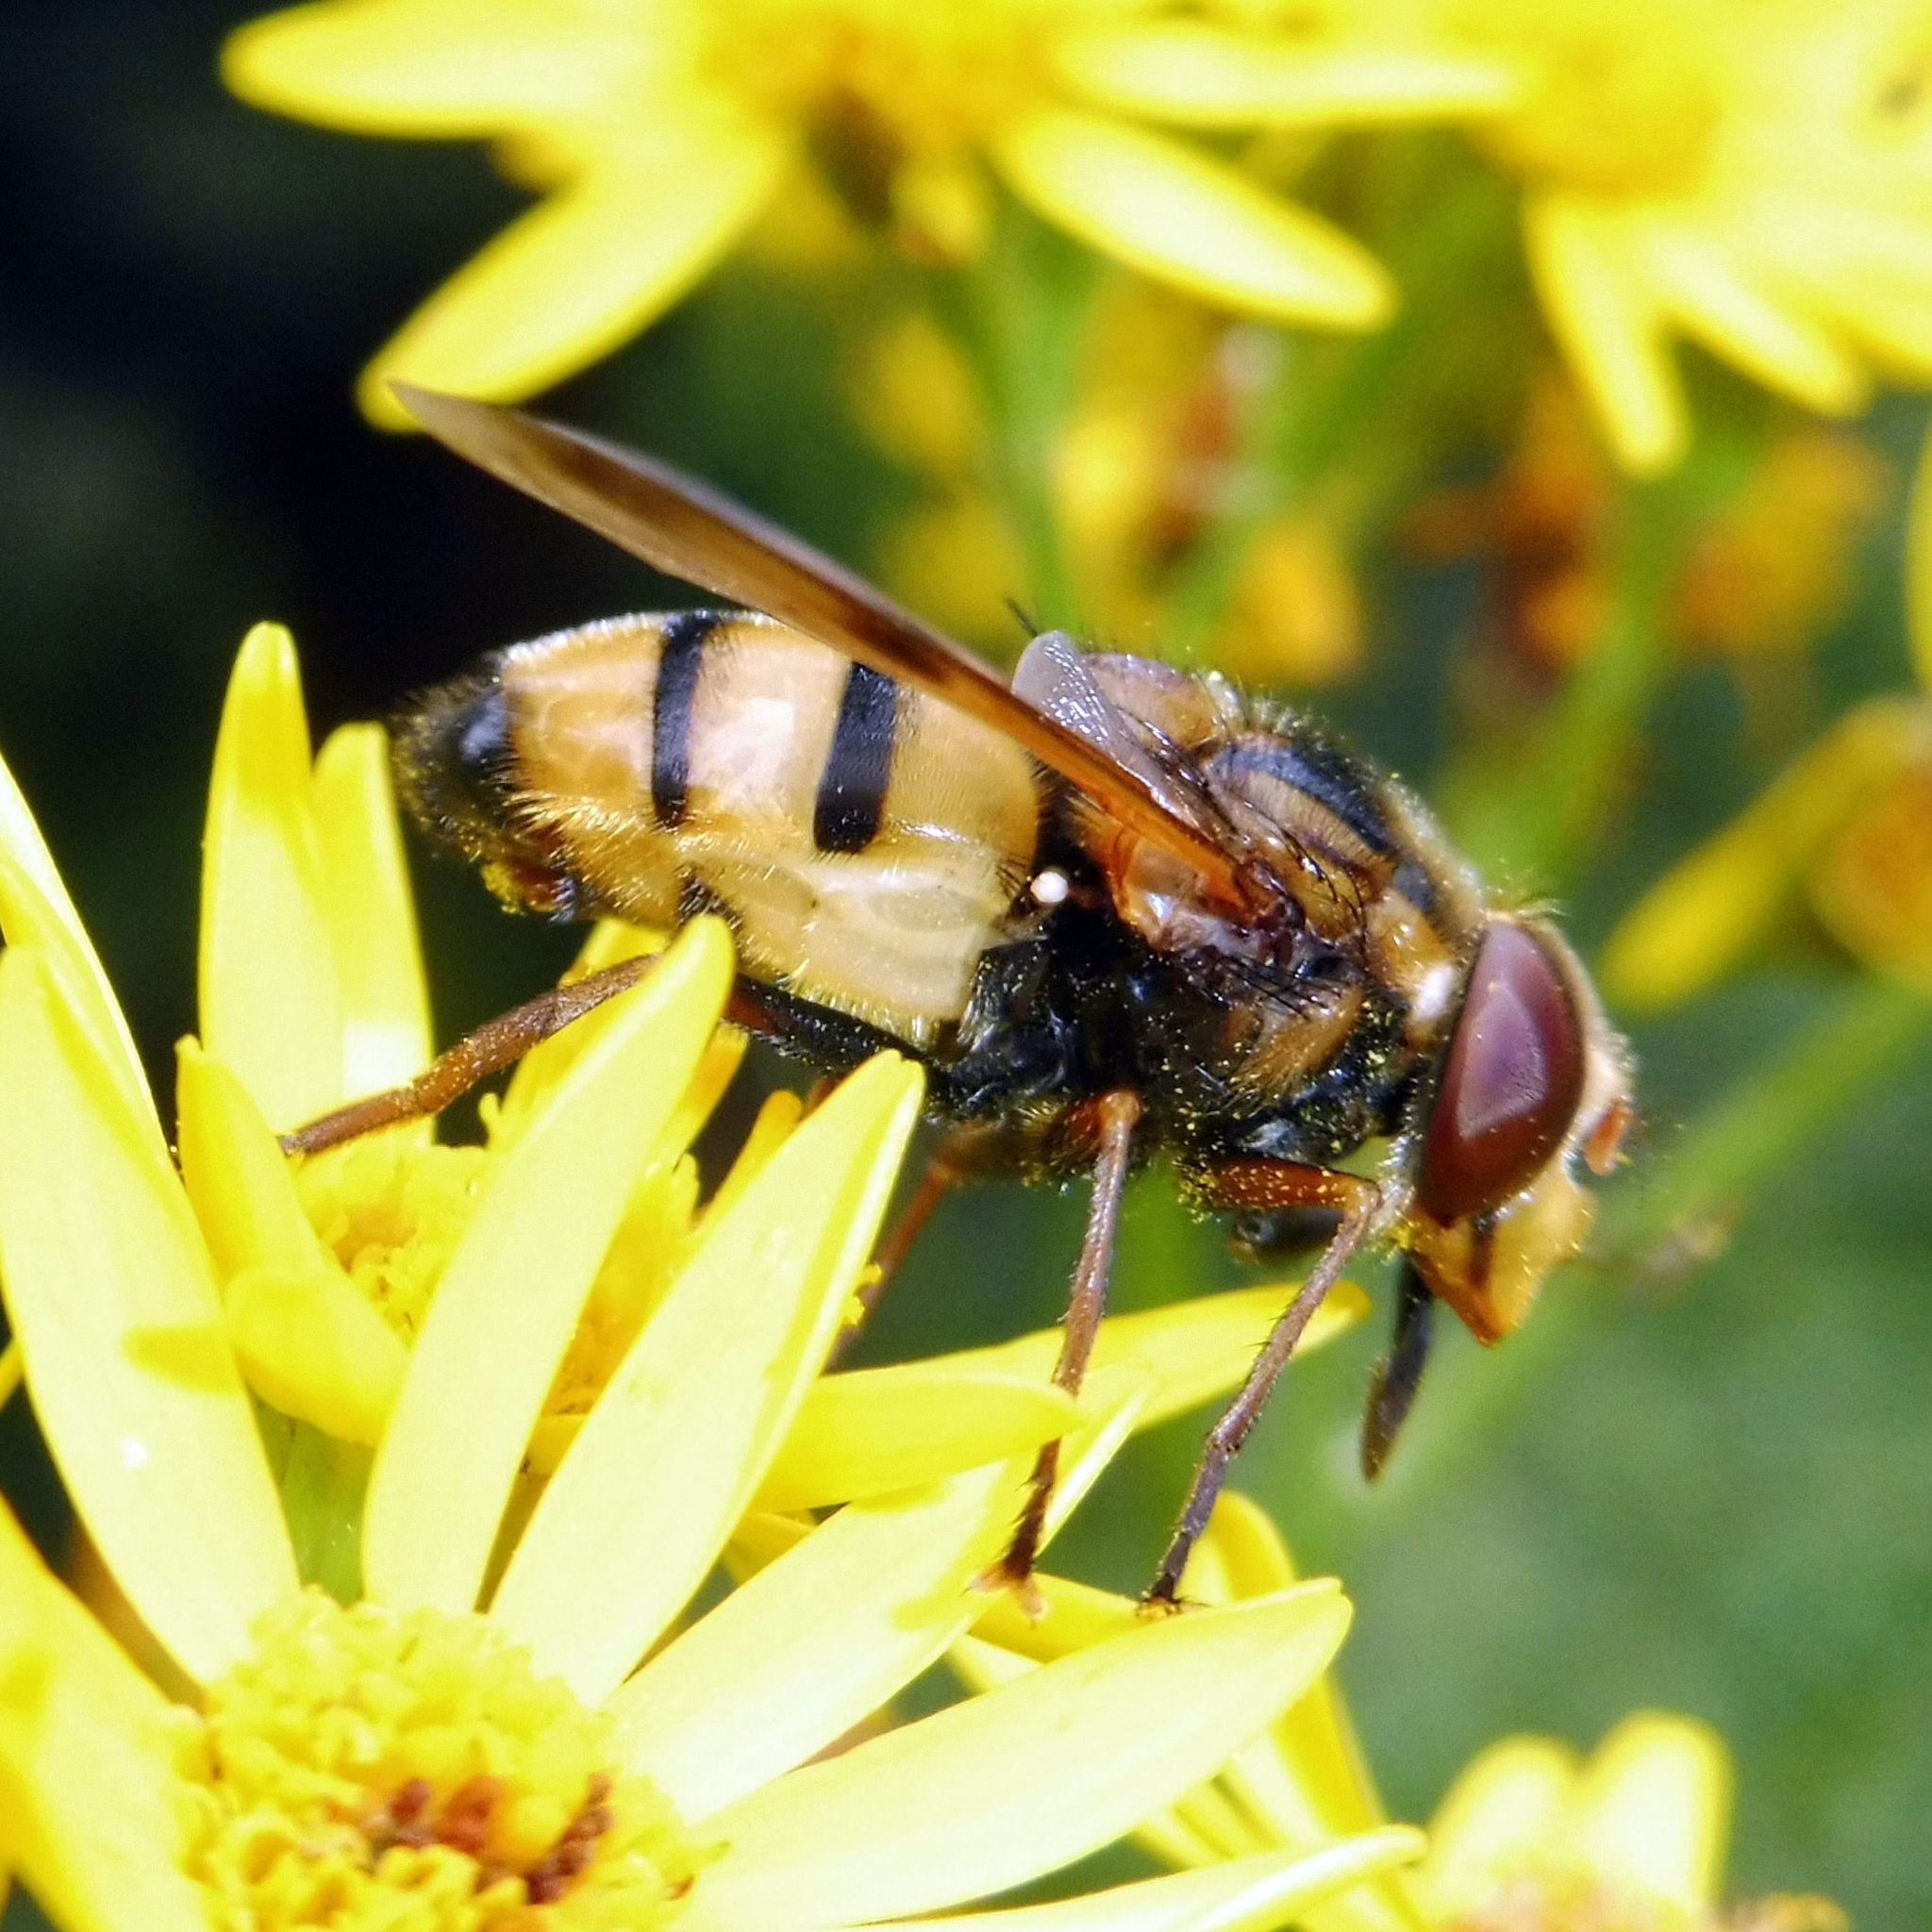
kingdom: Animalia
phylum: Arthropoda
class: Insecta
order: Diptera
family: Syrphidae
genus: Volucella
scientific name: Volucella inanis
